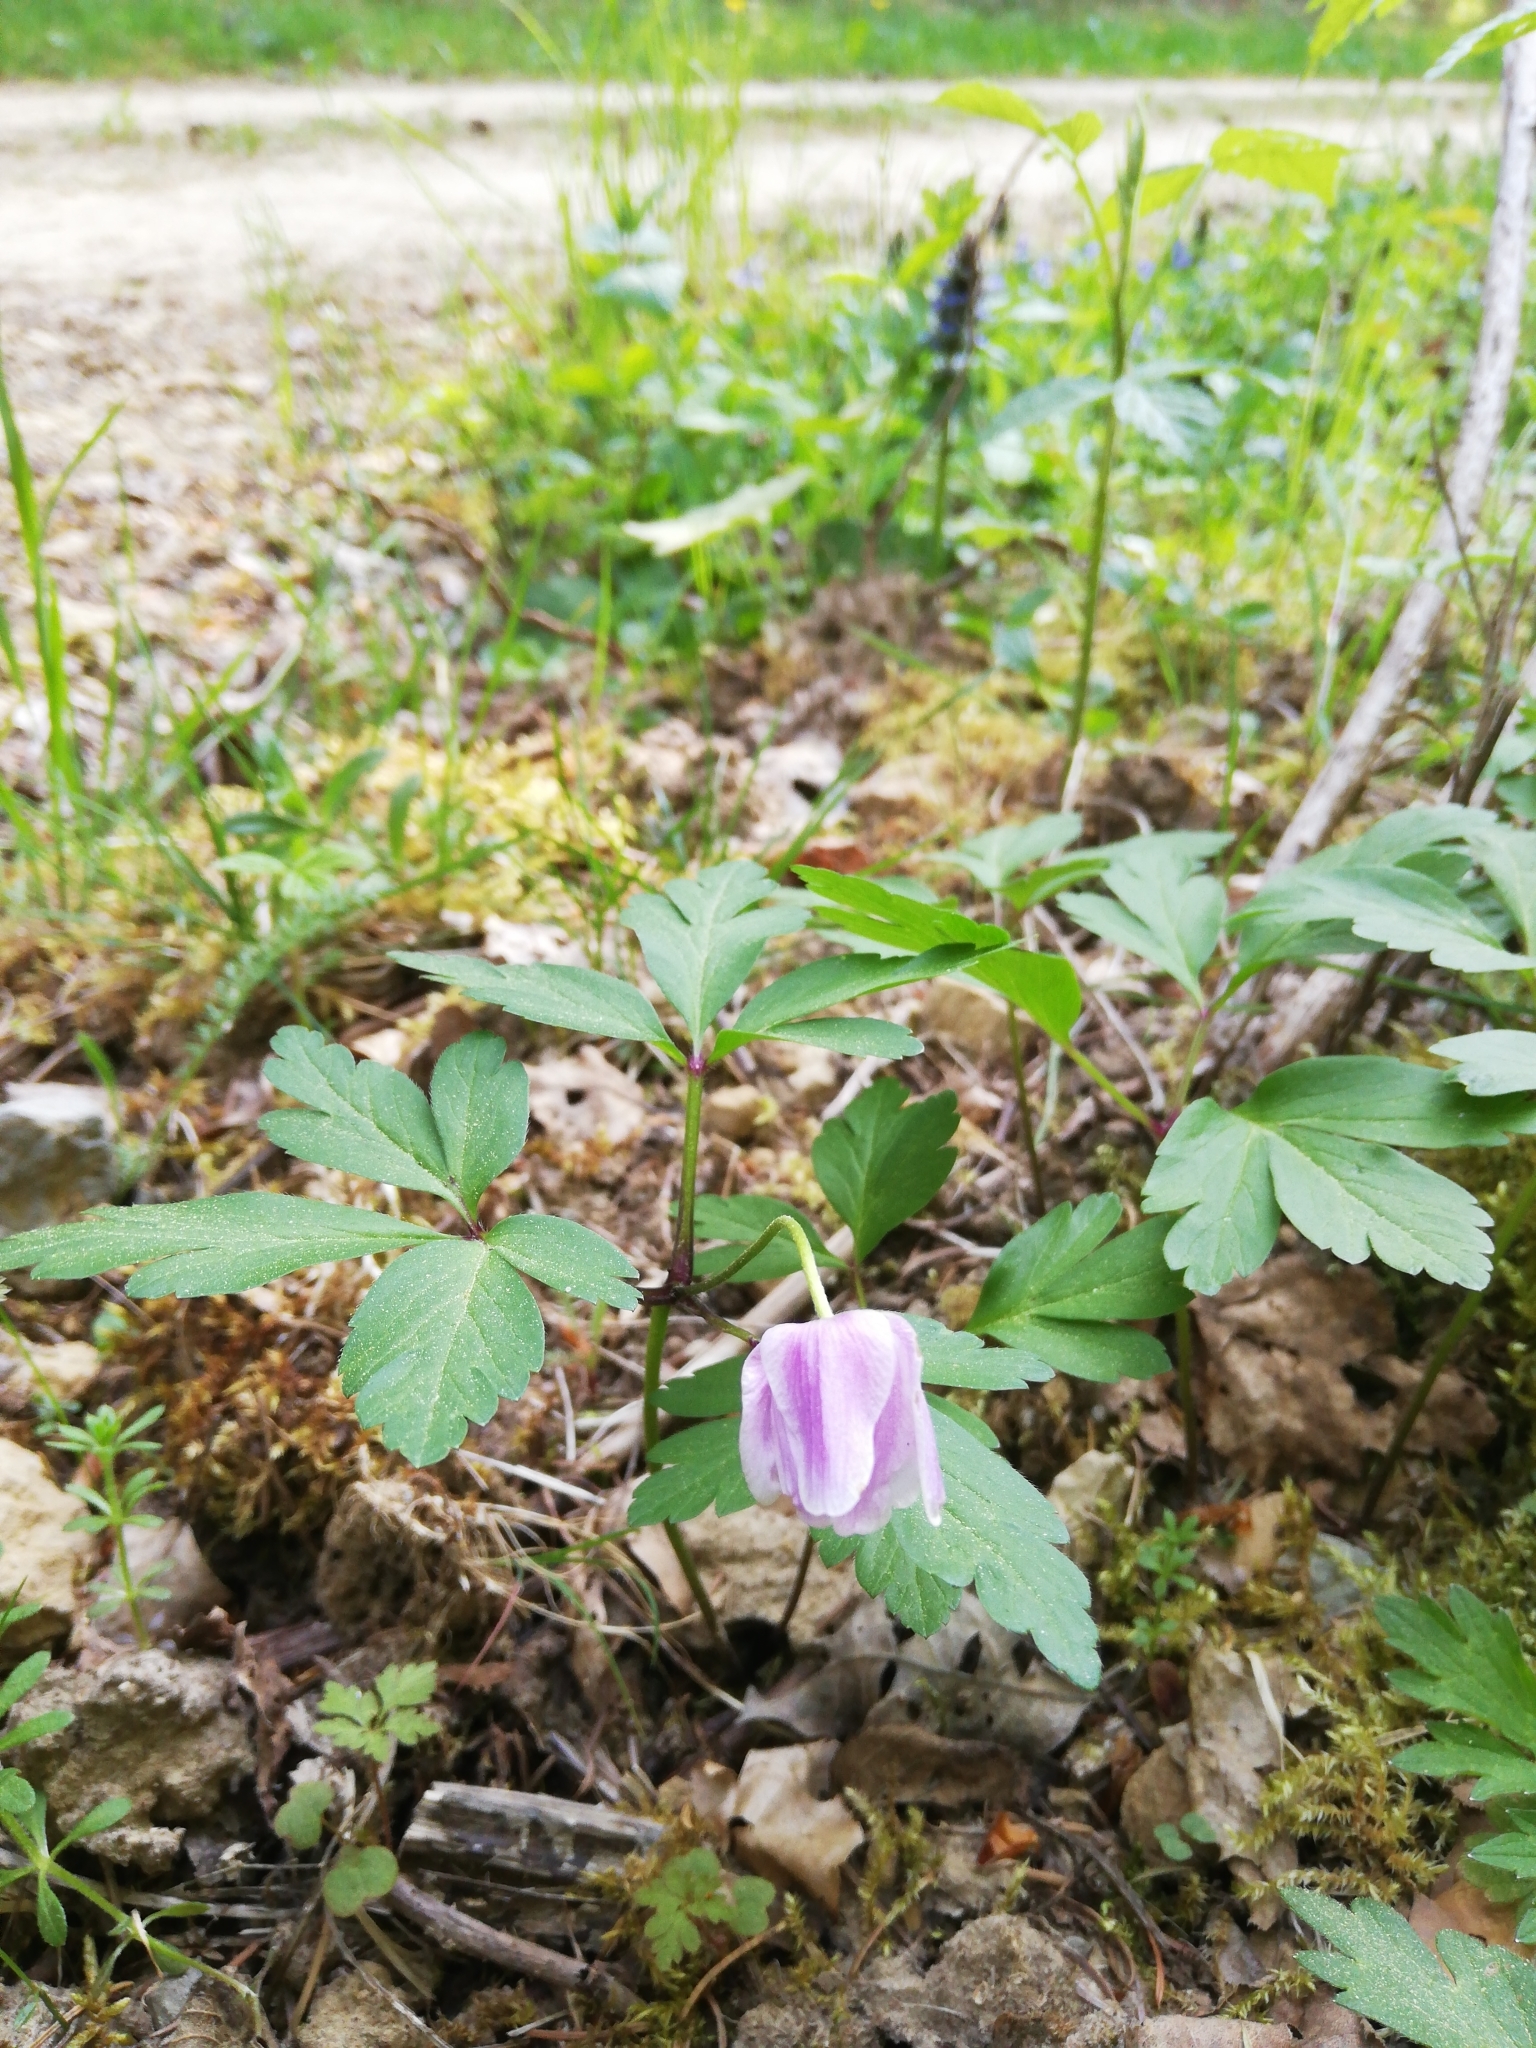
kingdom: Plantae
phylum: Tracheophyta
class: Magnoliopsida
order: Ranunculales
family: Ranunculaceae
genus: Anemone
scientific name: Anemone nemorosa
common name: Wood anemone
